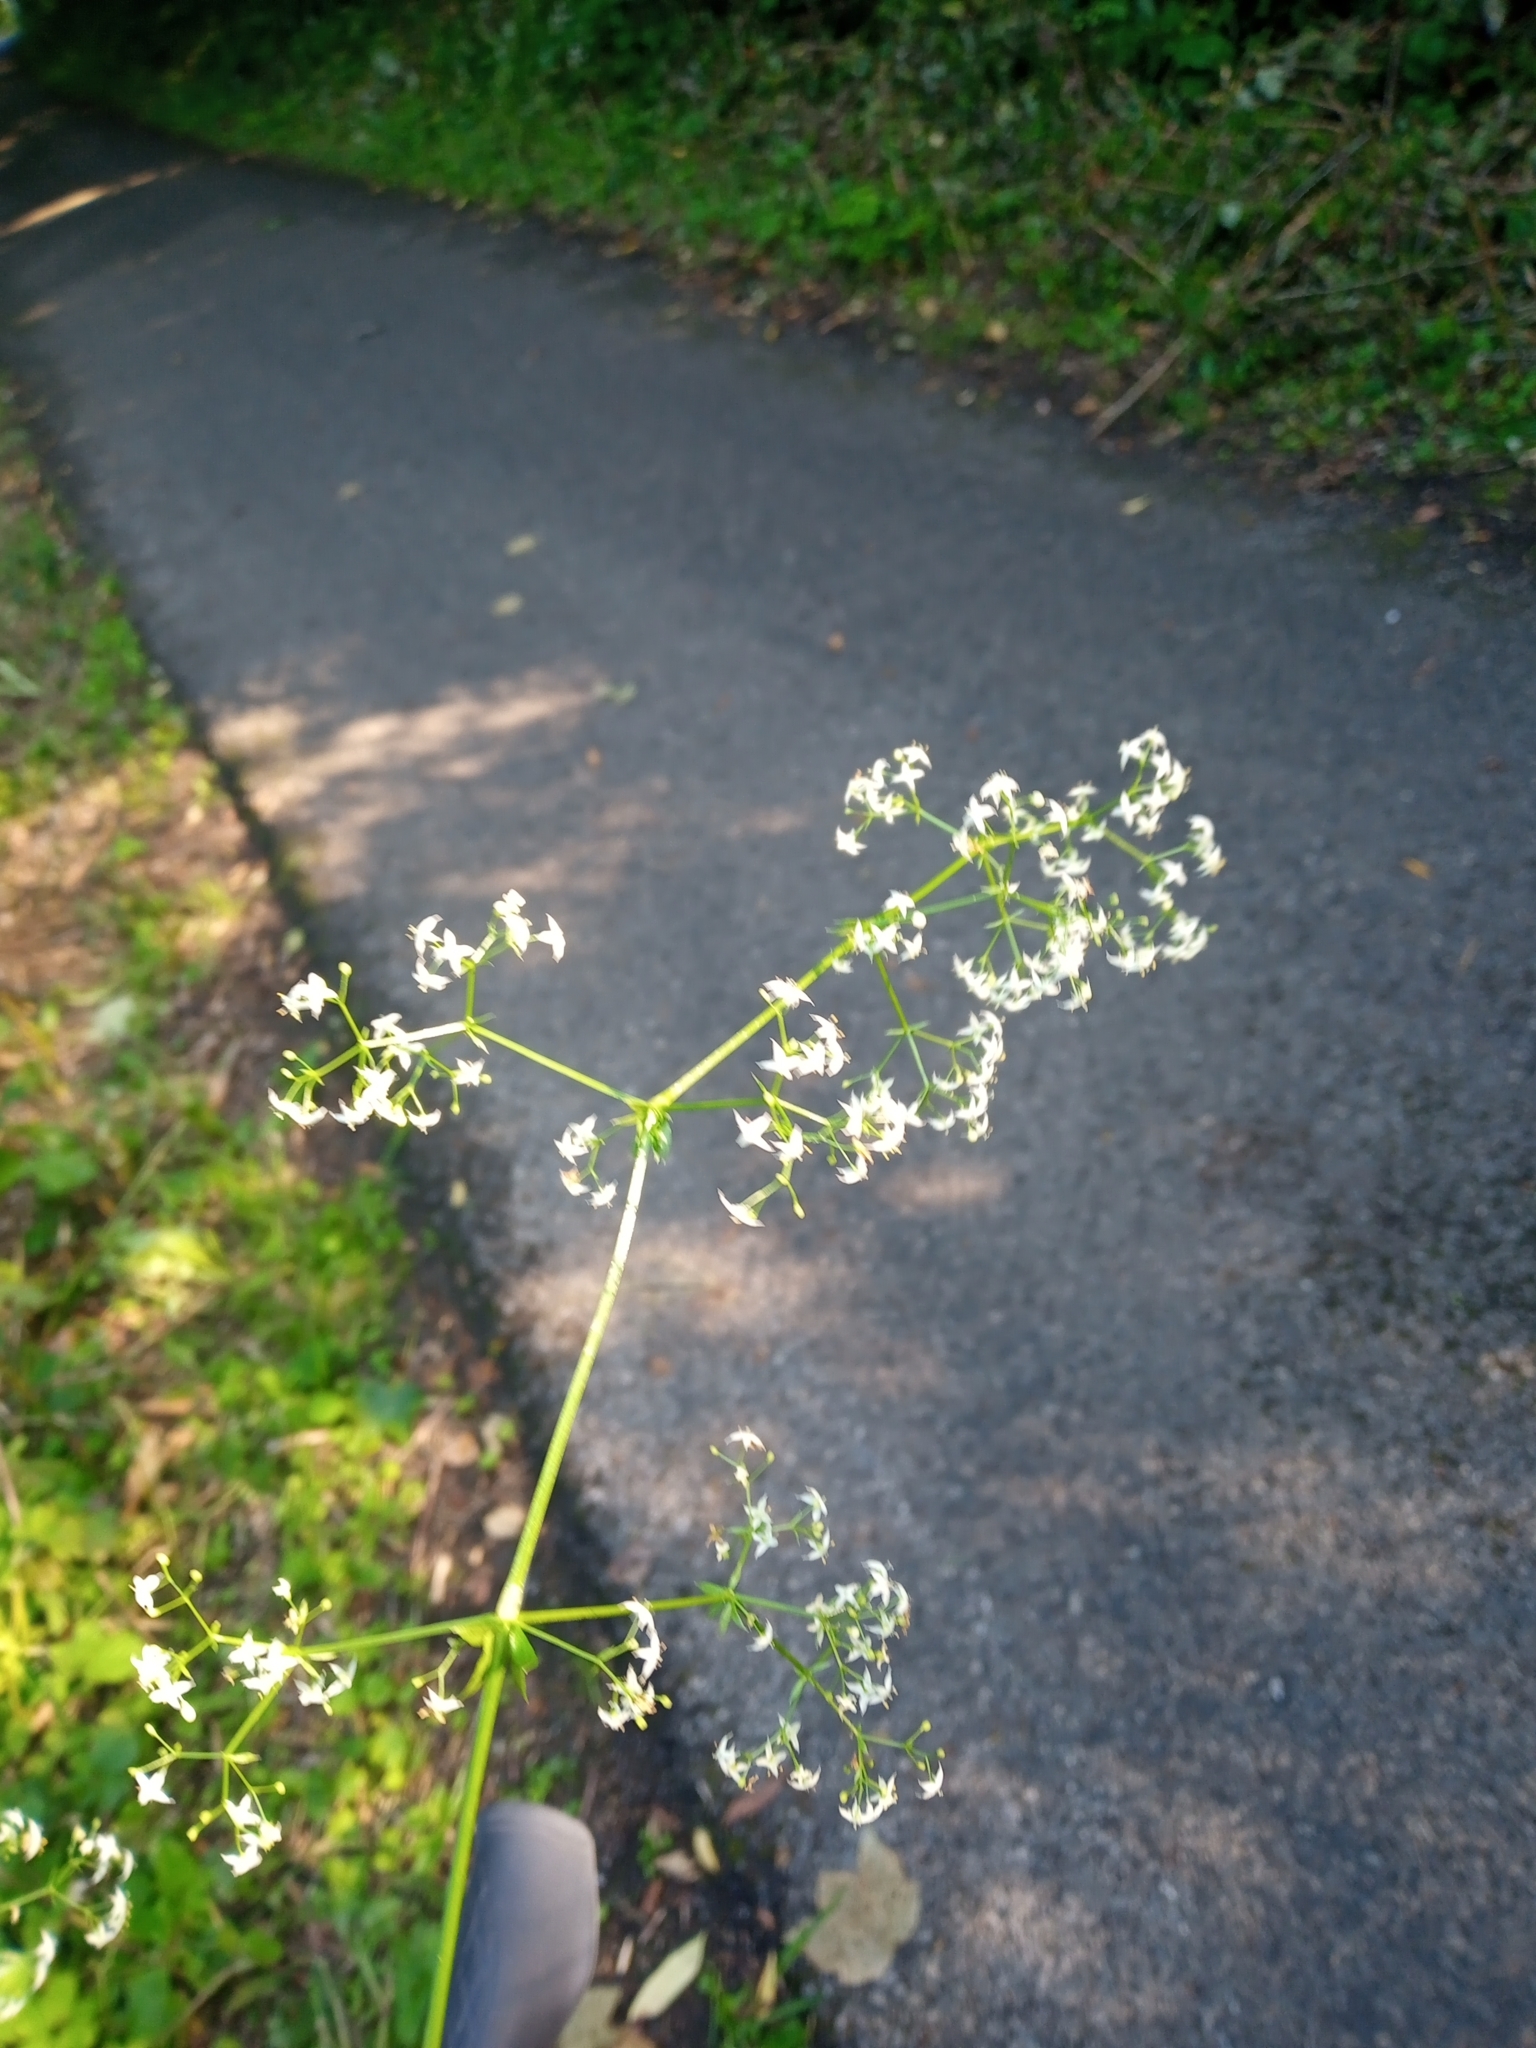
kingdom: Plantae
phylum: Tracheophyta
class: Magnoliopsida
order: Gentianales
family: Rubiaceae
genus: Galium
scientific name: Galium album
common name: White bedstraw
